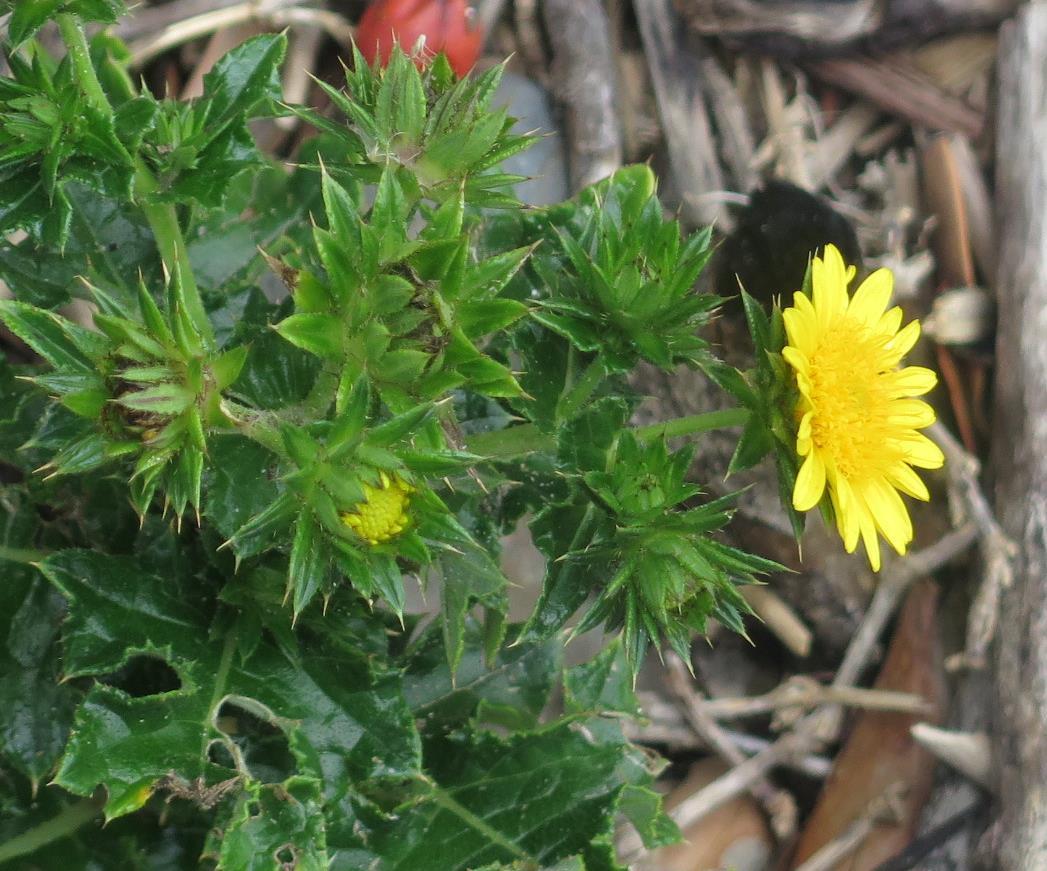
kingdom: Plantae
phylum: Tracheophyta
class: Magnoliopsida
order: Asterales
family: Asteraceae
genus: Berkheya
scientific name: Berkheya erysithales
